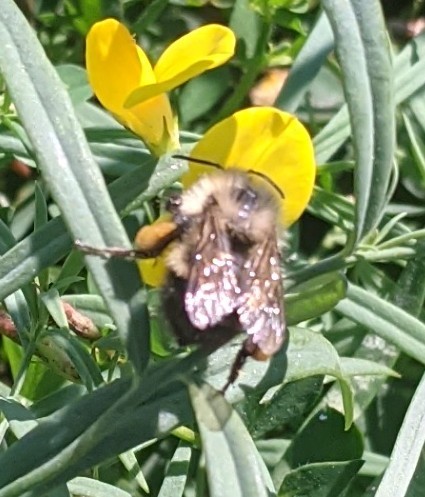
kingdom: Animalia
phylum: Arthropoda
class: Insecta
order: Hymenoptera
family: Apidae
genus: Pyrobombus
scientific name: Pyrobombus
